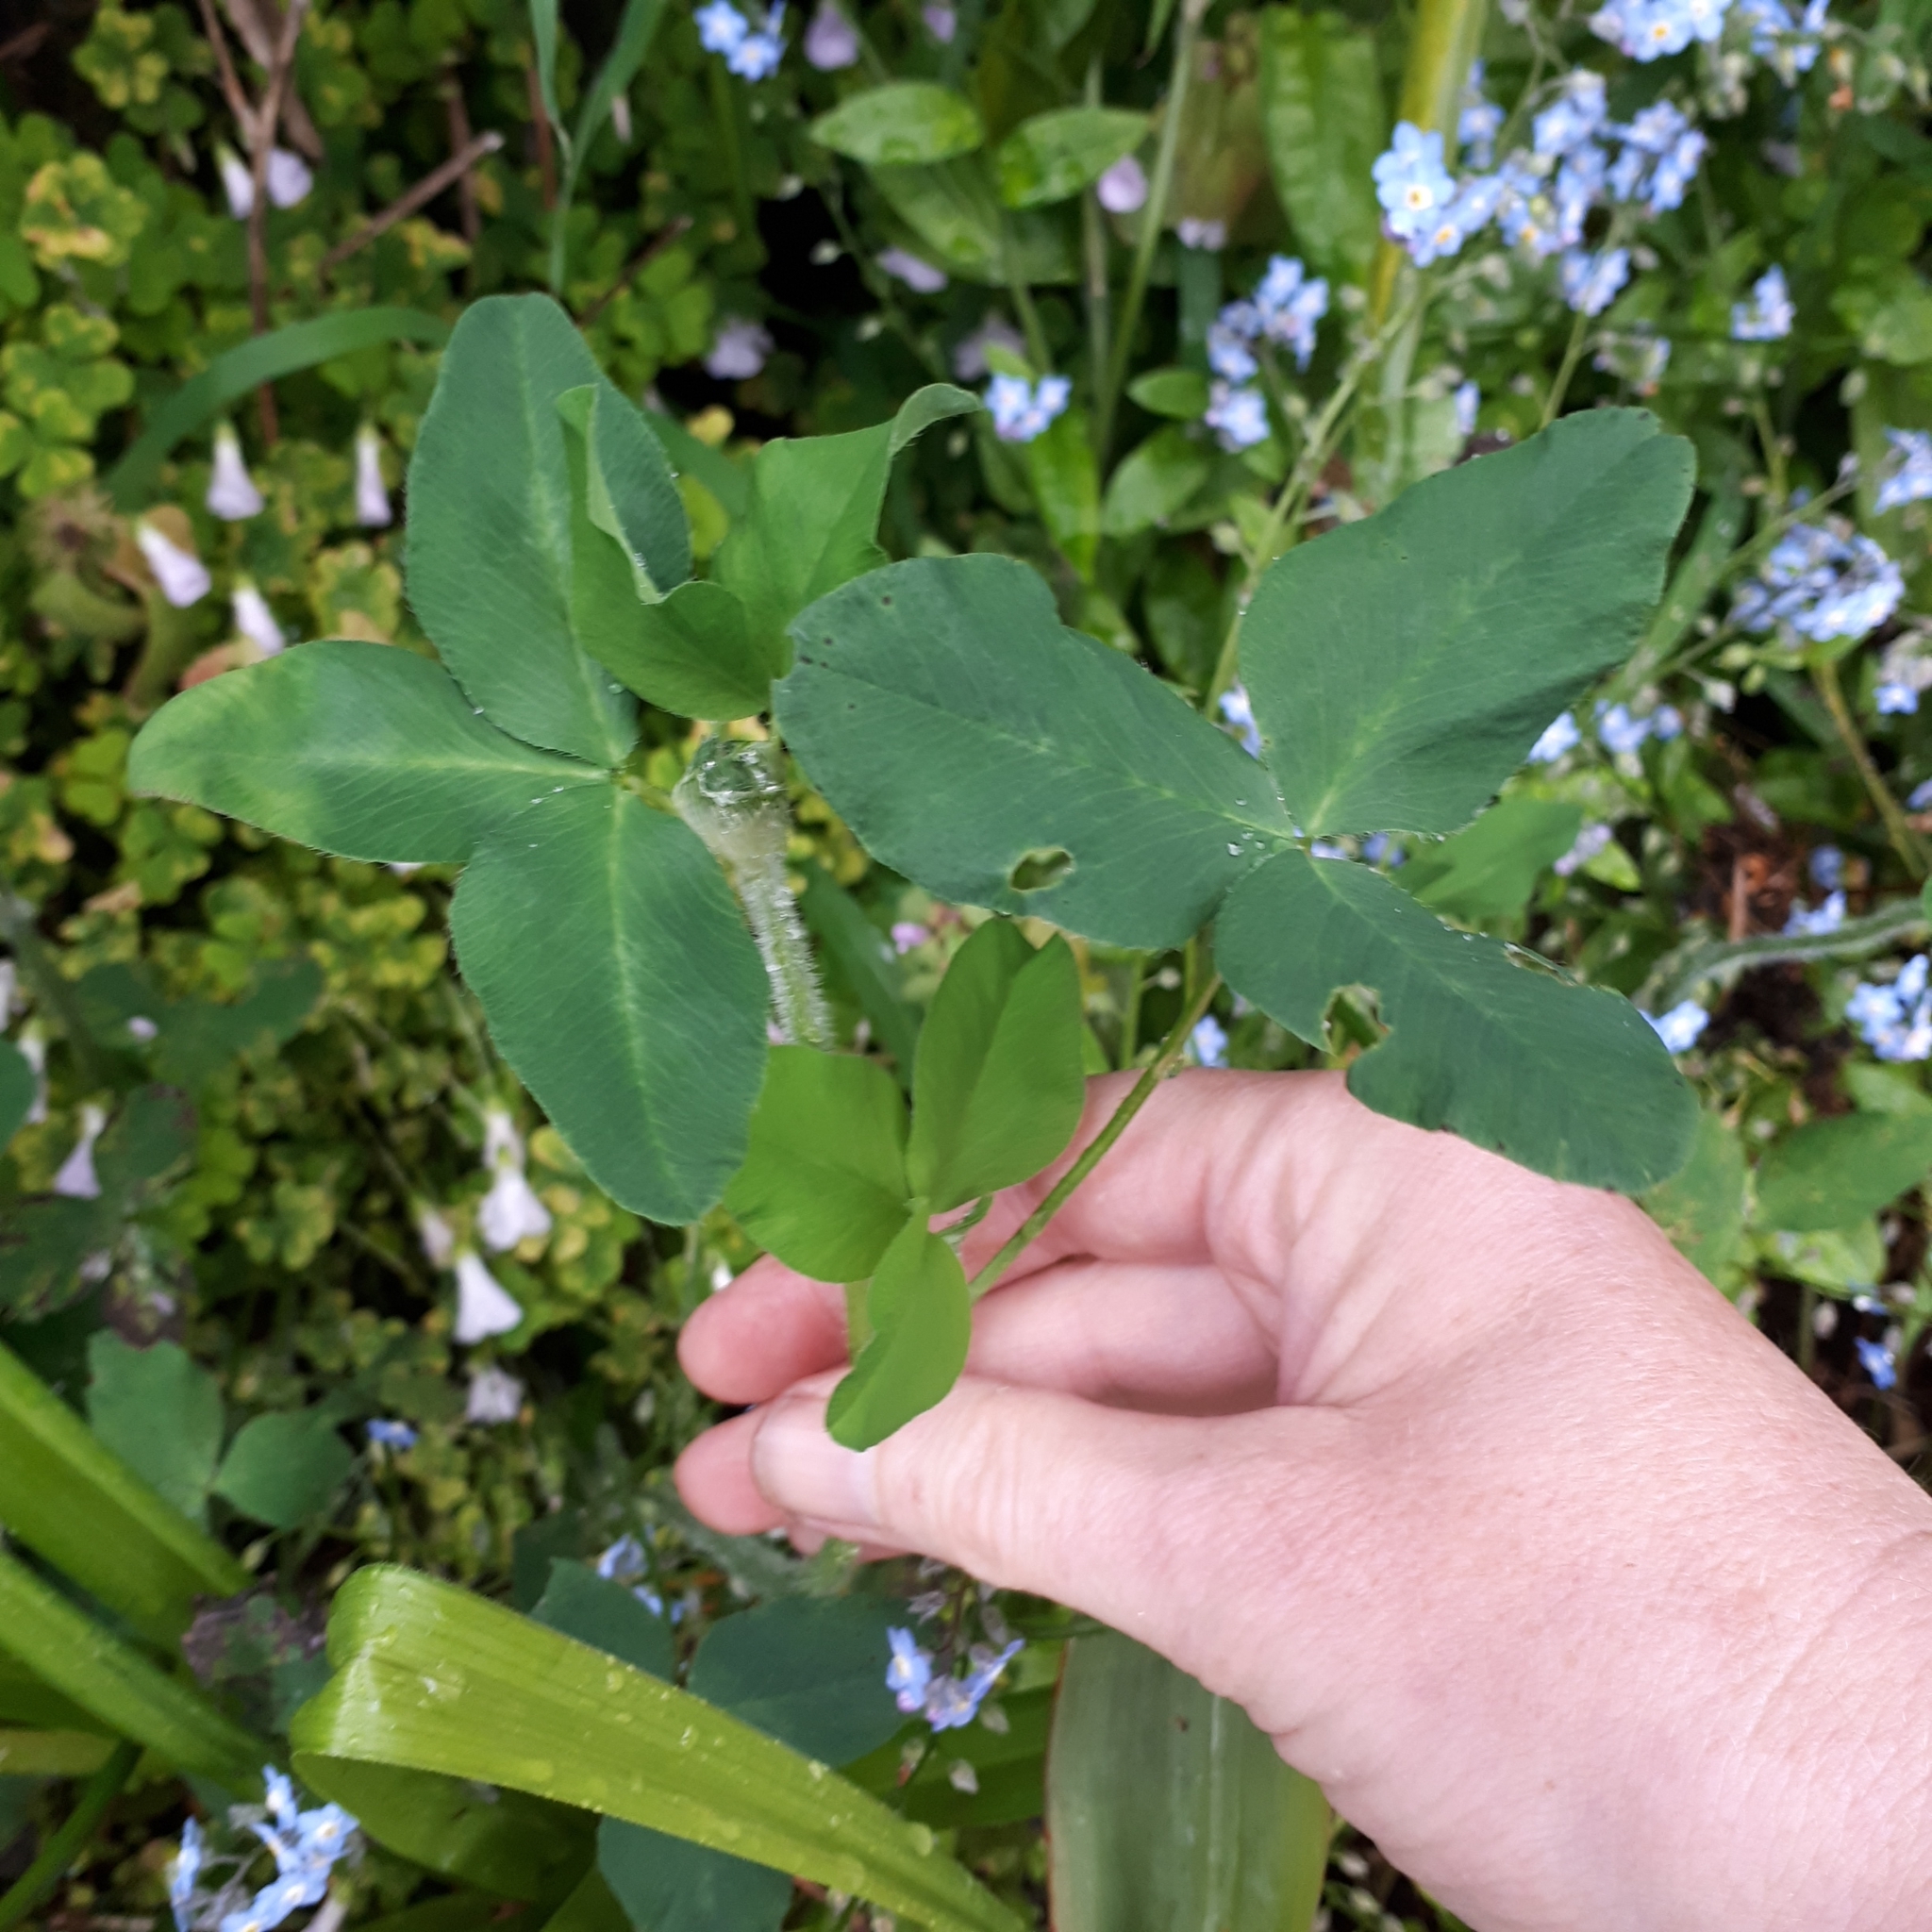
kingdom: Plantae
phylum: Tracheophyta
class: Magnoliopsida
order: Fabales
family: Fabaceae
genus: Trifolium
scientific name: Trifolium pratense
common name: Red clover
